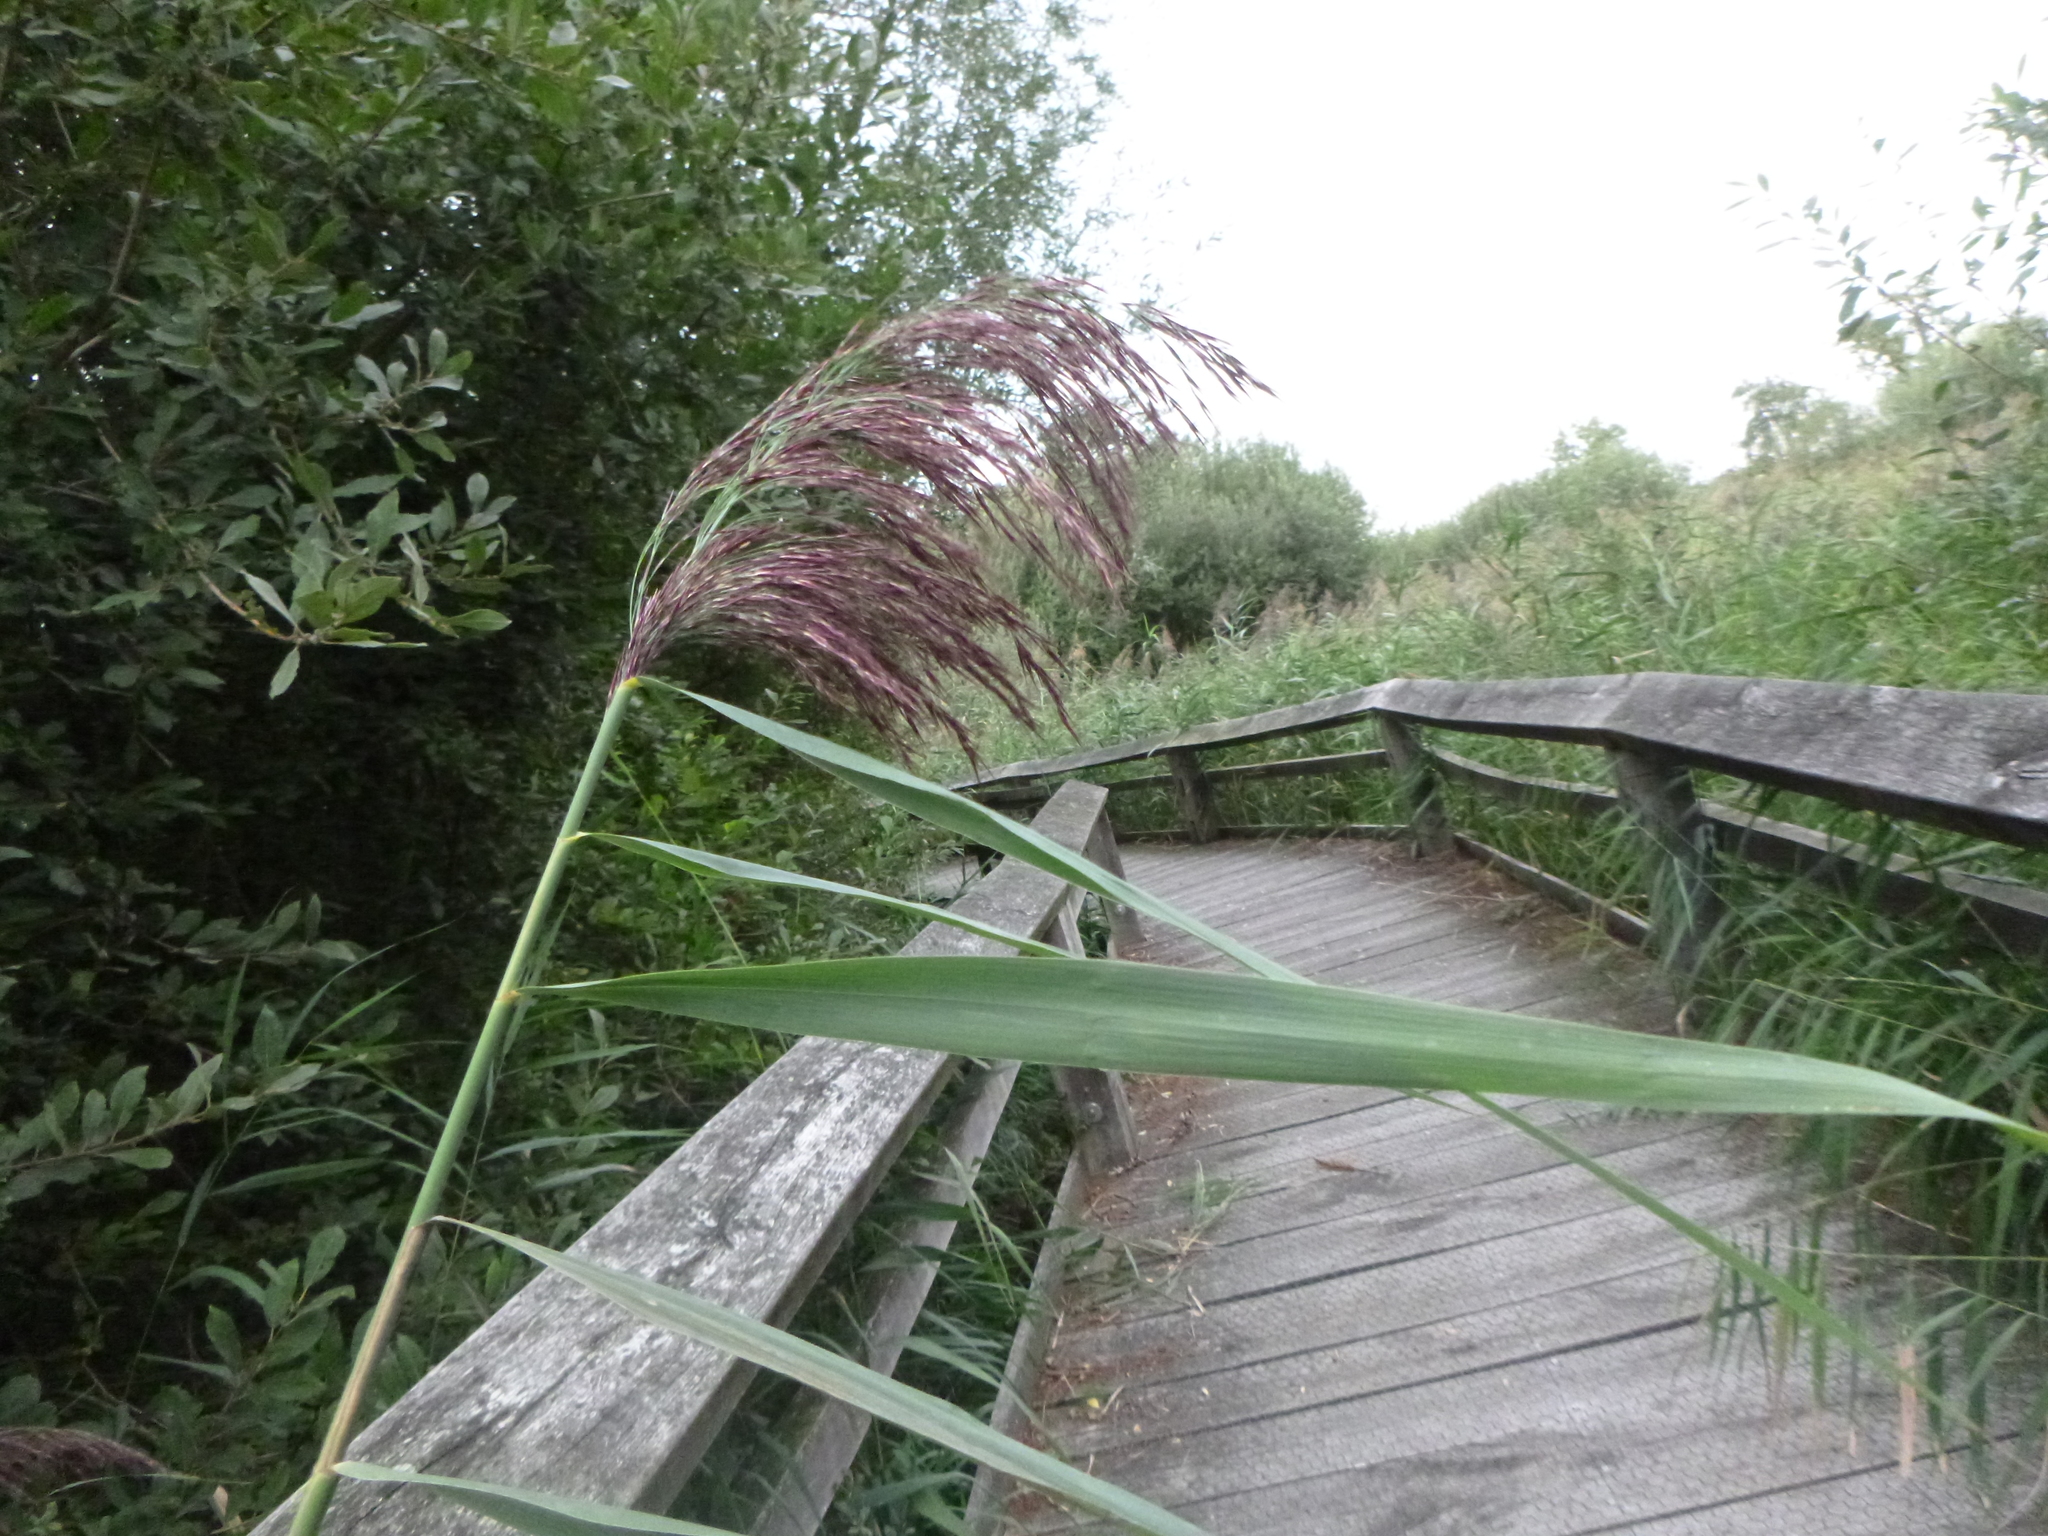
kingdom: Plantae
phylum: Tracheophyta
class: Liliopsida
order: Poales
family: Poaceae
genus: Phragmites
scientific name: Phragmites australis
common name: Common reed
